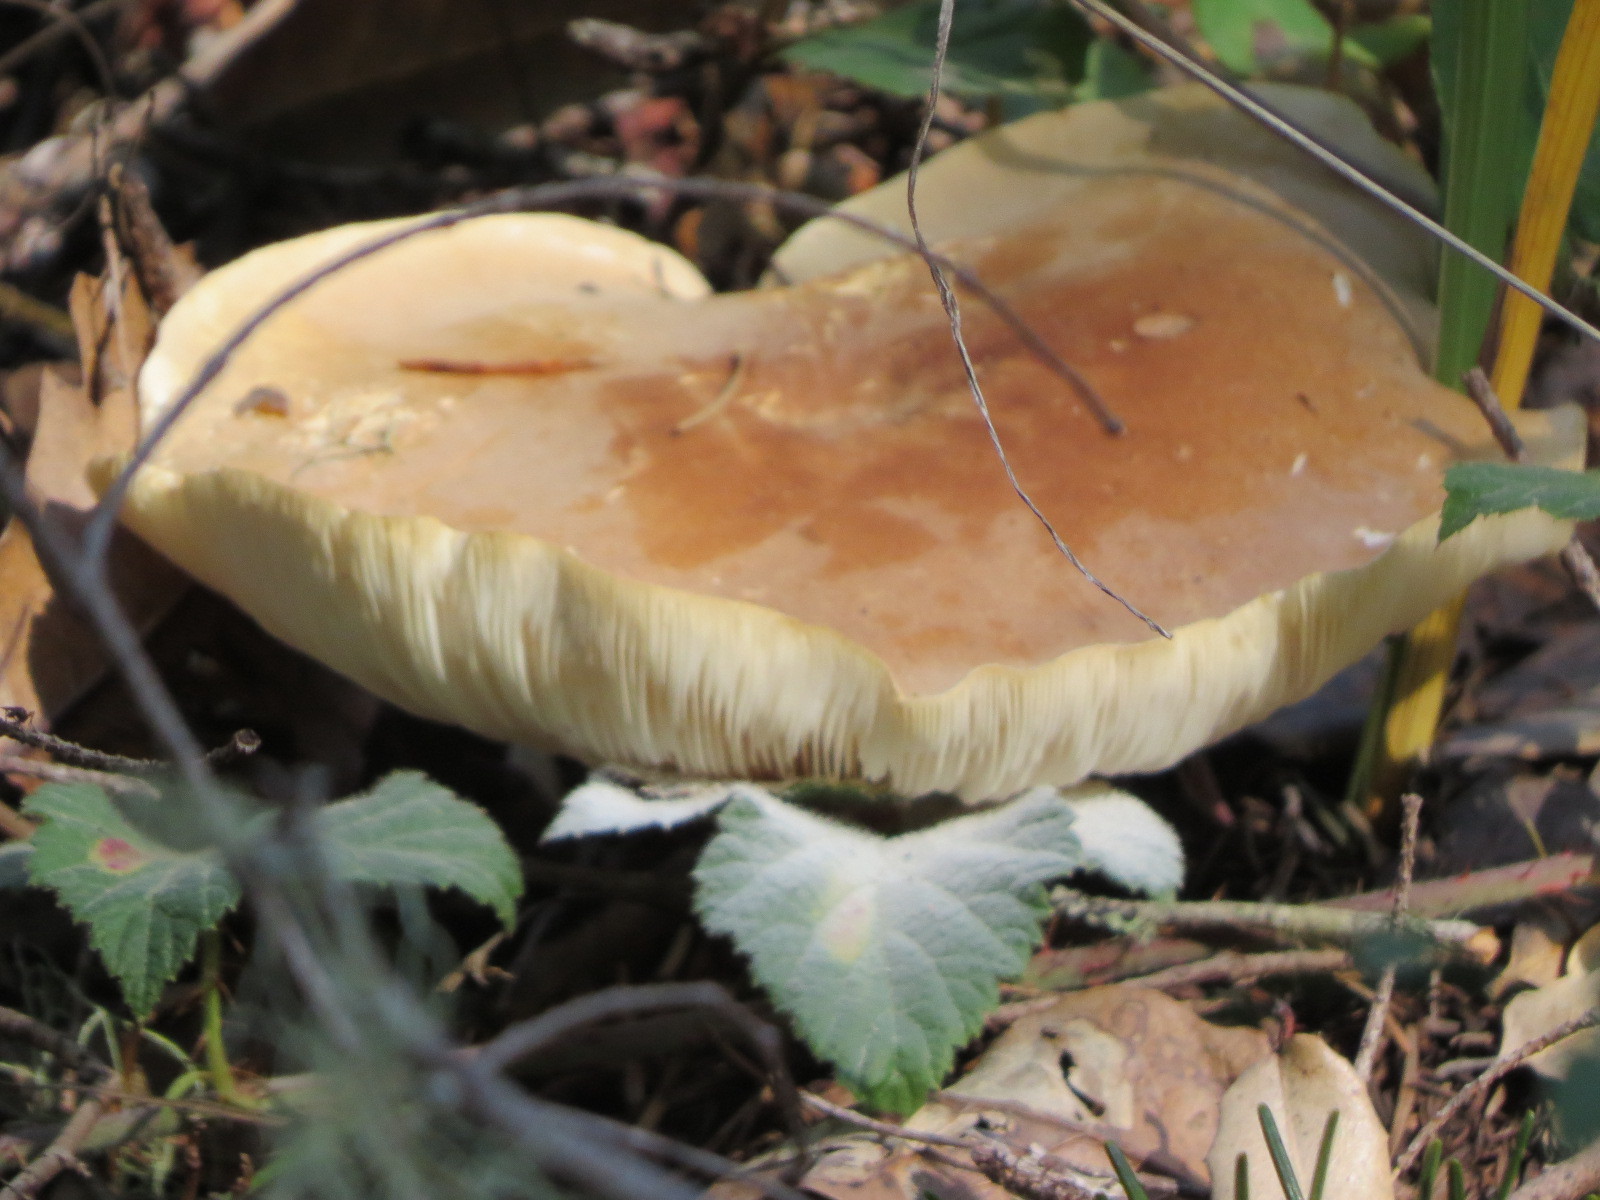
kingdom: Fungi
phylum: Basidiomycota
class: Agaricomycetes
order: Agaricales
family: Tricholomataceae
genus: Leucopaxillus
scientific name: Leucopaxillus gentianeus
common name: Bitter funnel
